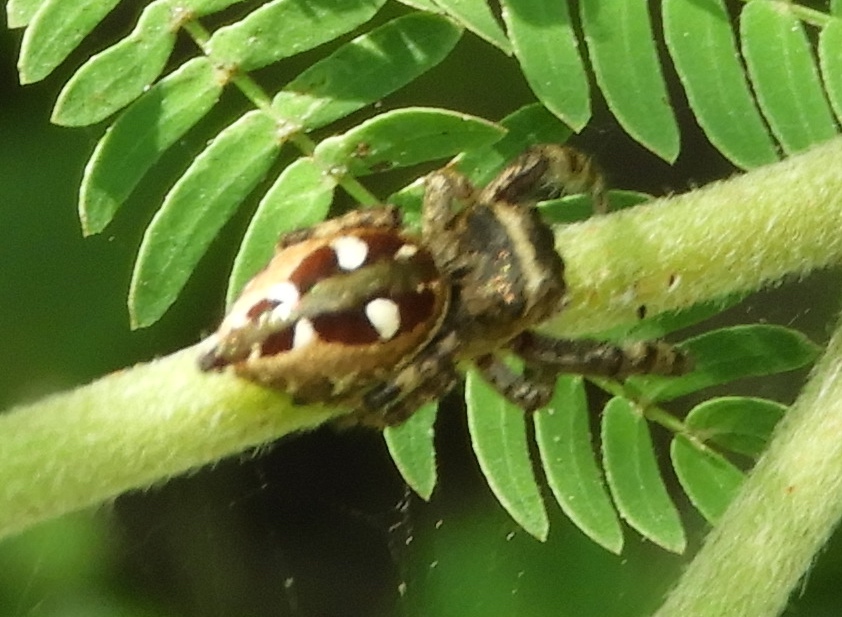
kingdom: Animalia
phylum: Arthropoda
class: Arachnida
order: Araneae
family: Salticidae
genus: Dendryphantes
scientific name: Dendryphantes zygoballoides
